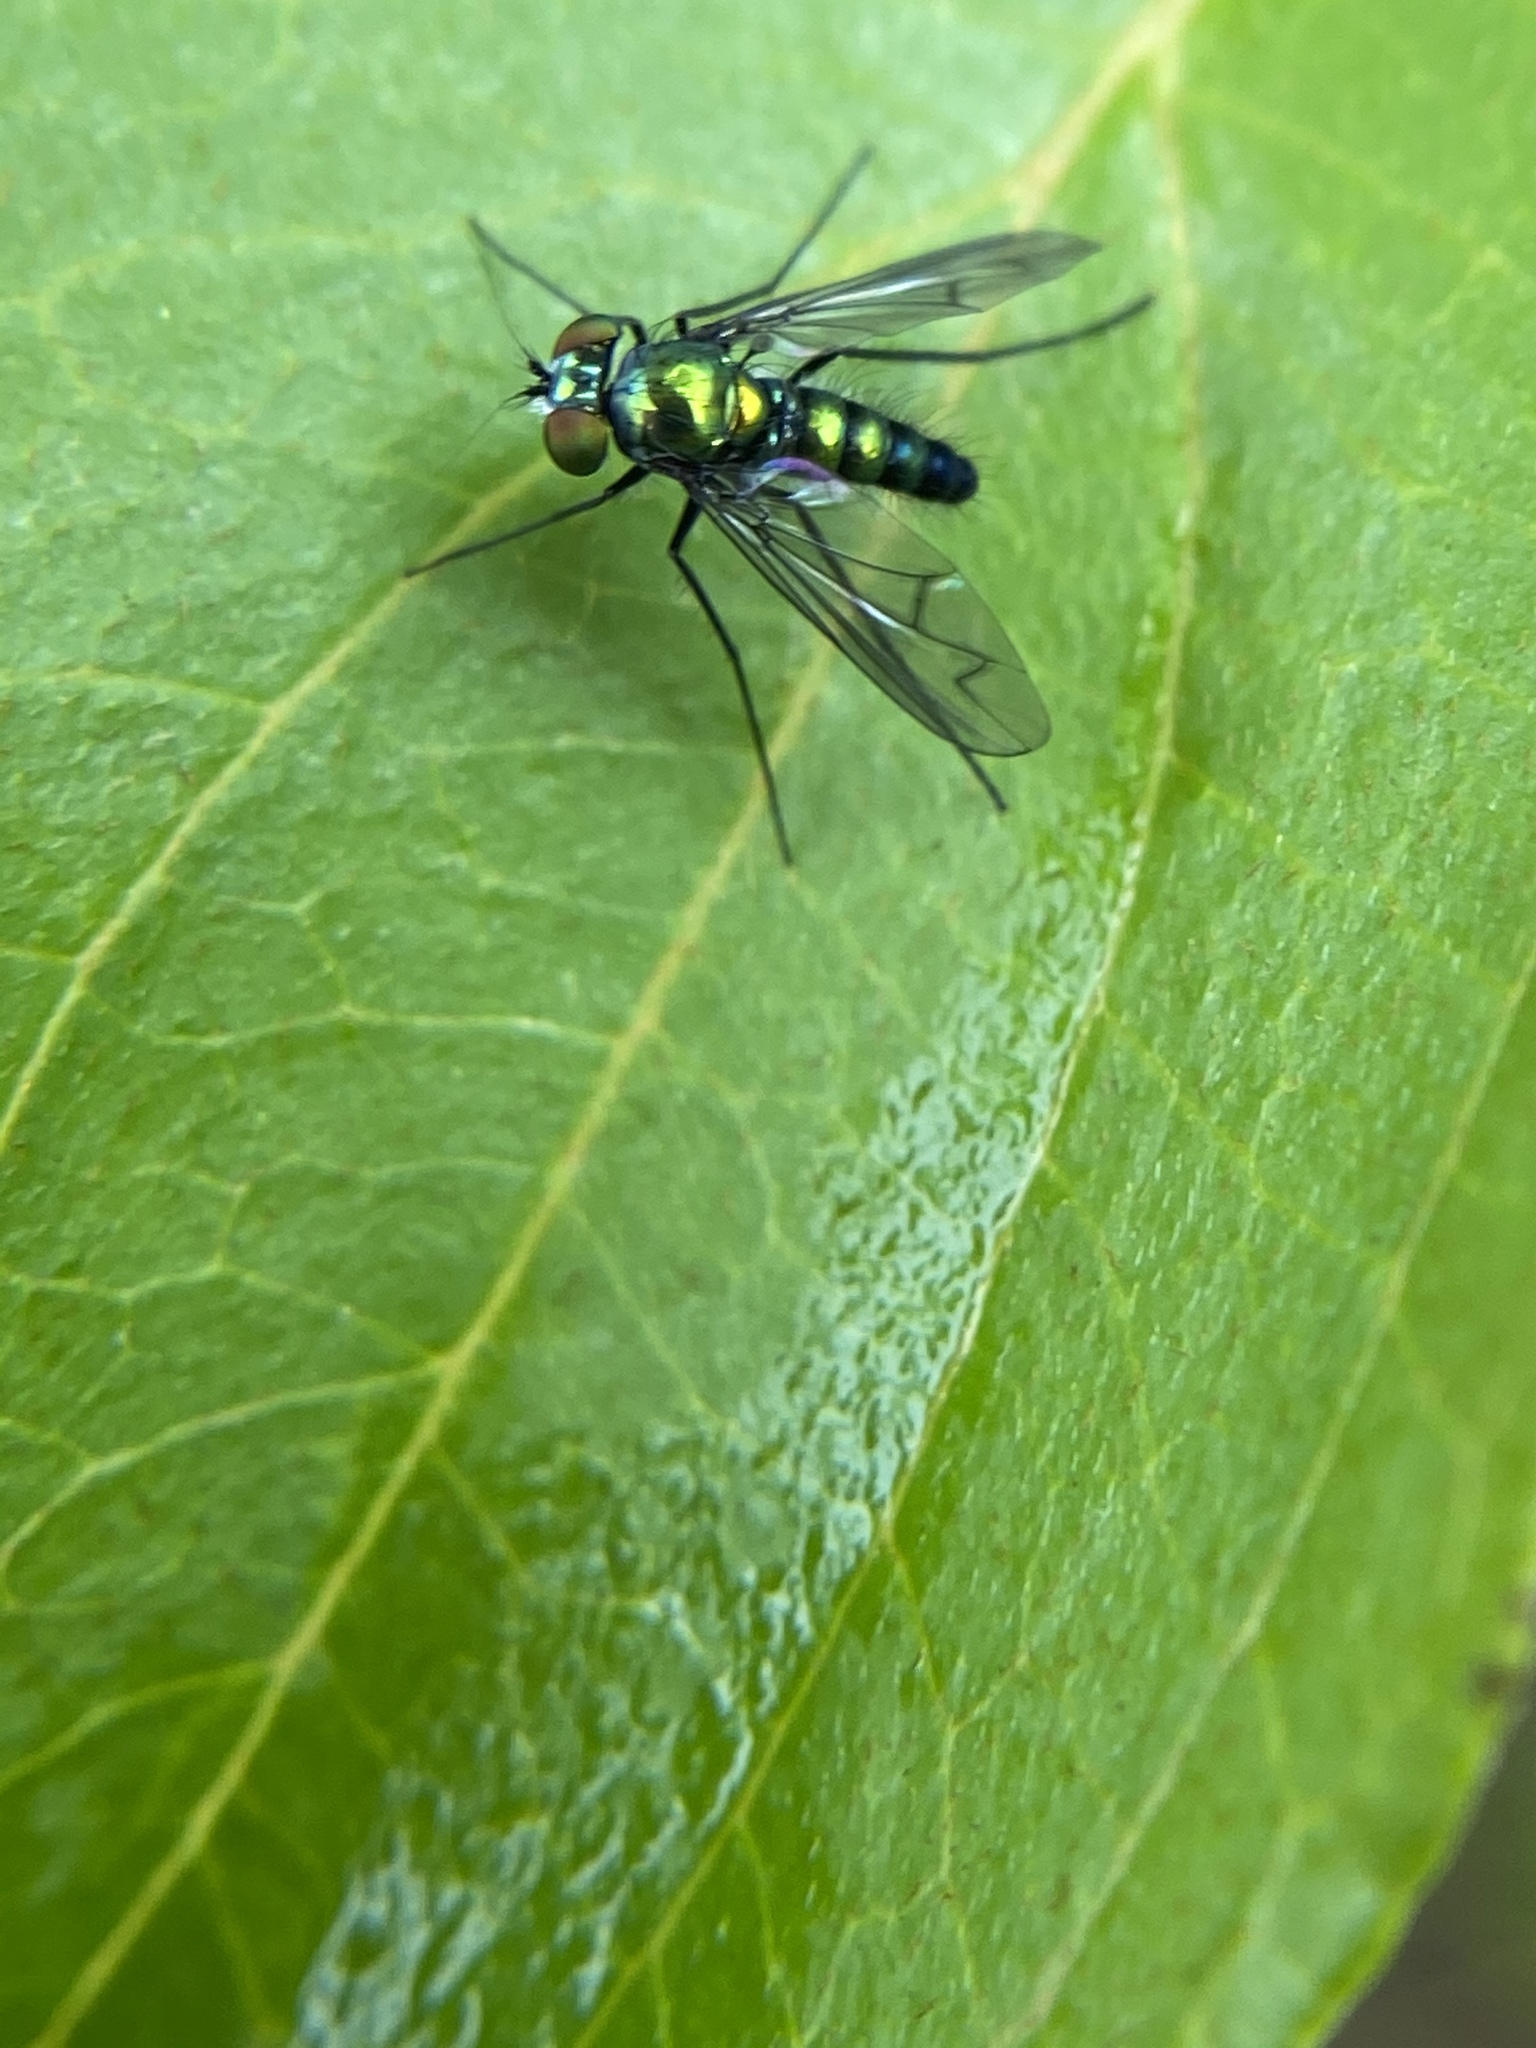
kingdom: Animalia
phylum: Arthropoda
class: Insecta
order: Diptera
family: Dolichopodidae
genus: Condylostylus
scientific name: Condylostylus patibulatus
